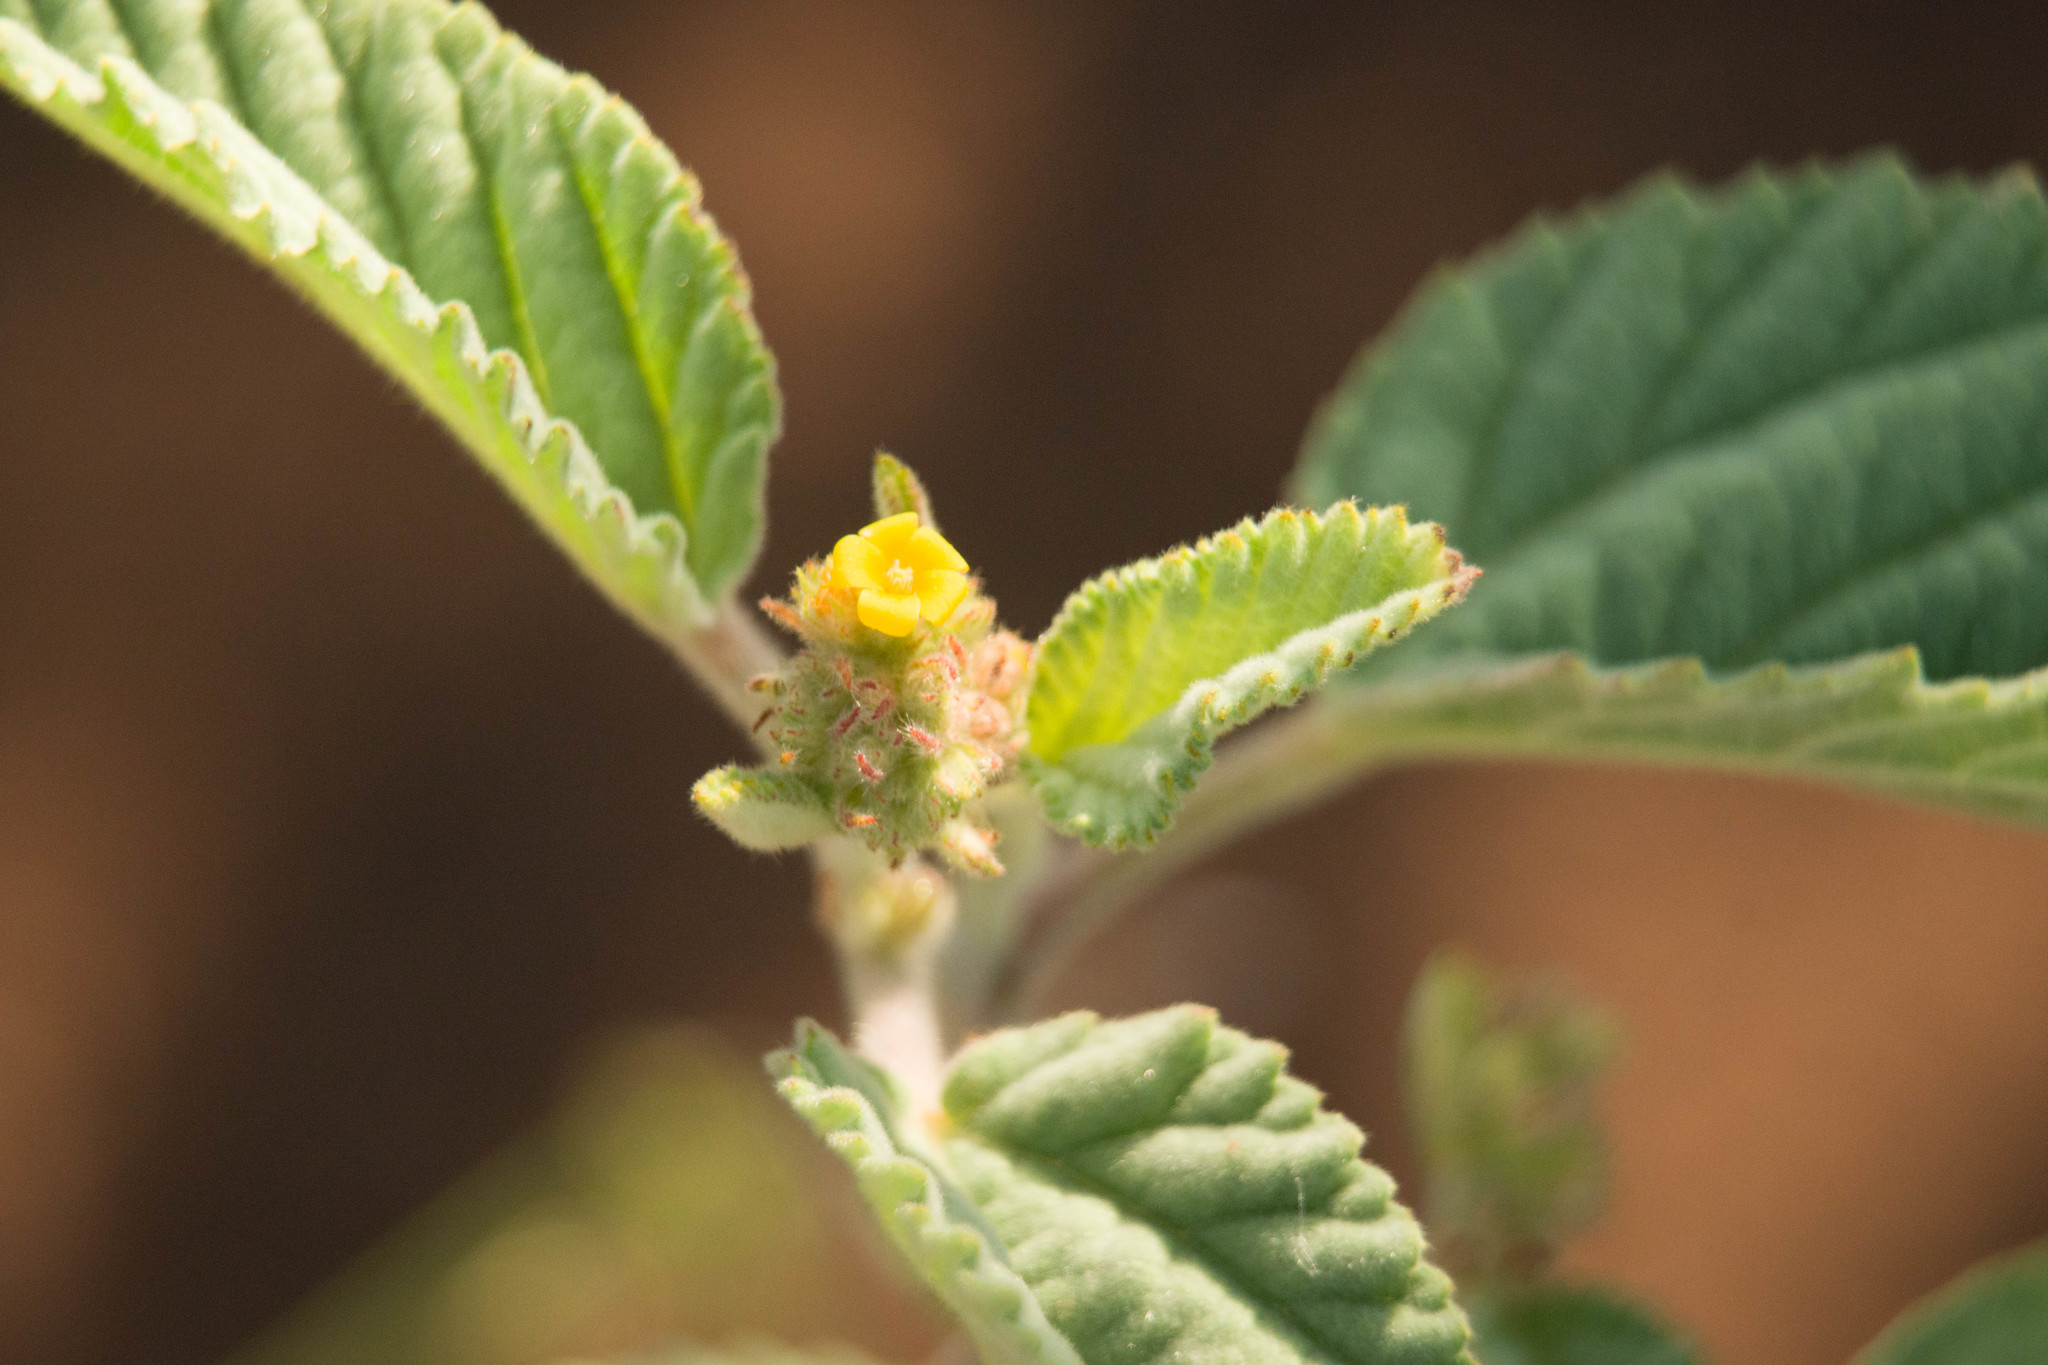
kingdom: Plantae
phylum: Tracheophyta
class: Magnoliopsida
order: Malvales
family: Malvaceae
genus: Waltheria
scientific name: Waltheria indica
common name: Leather-coat
